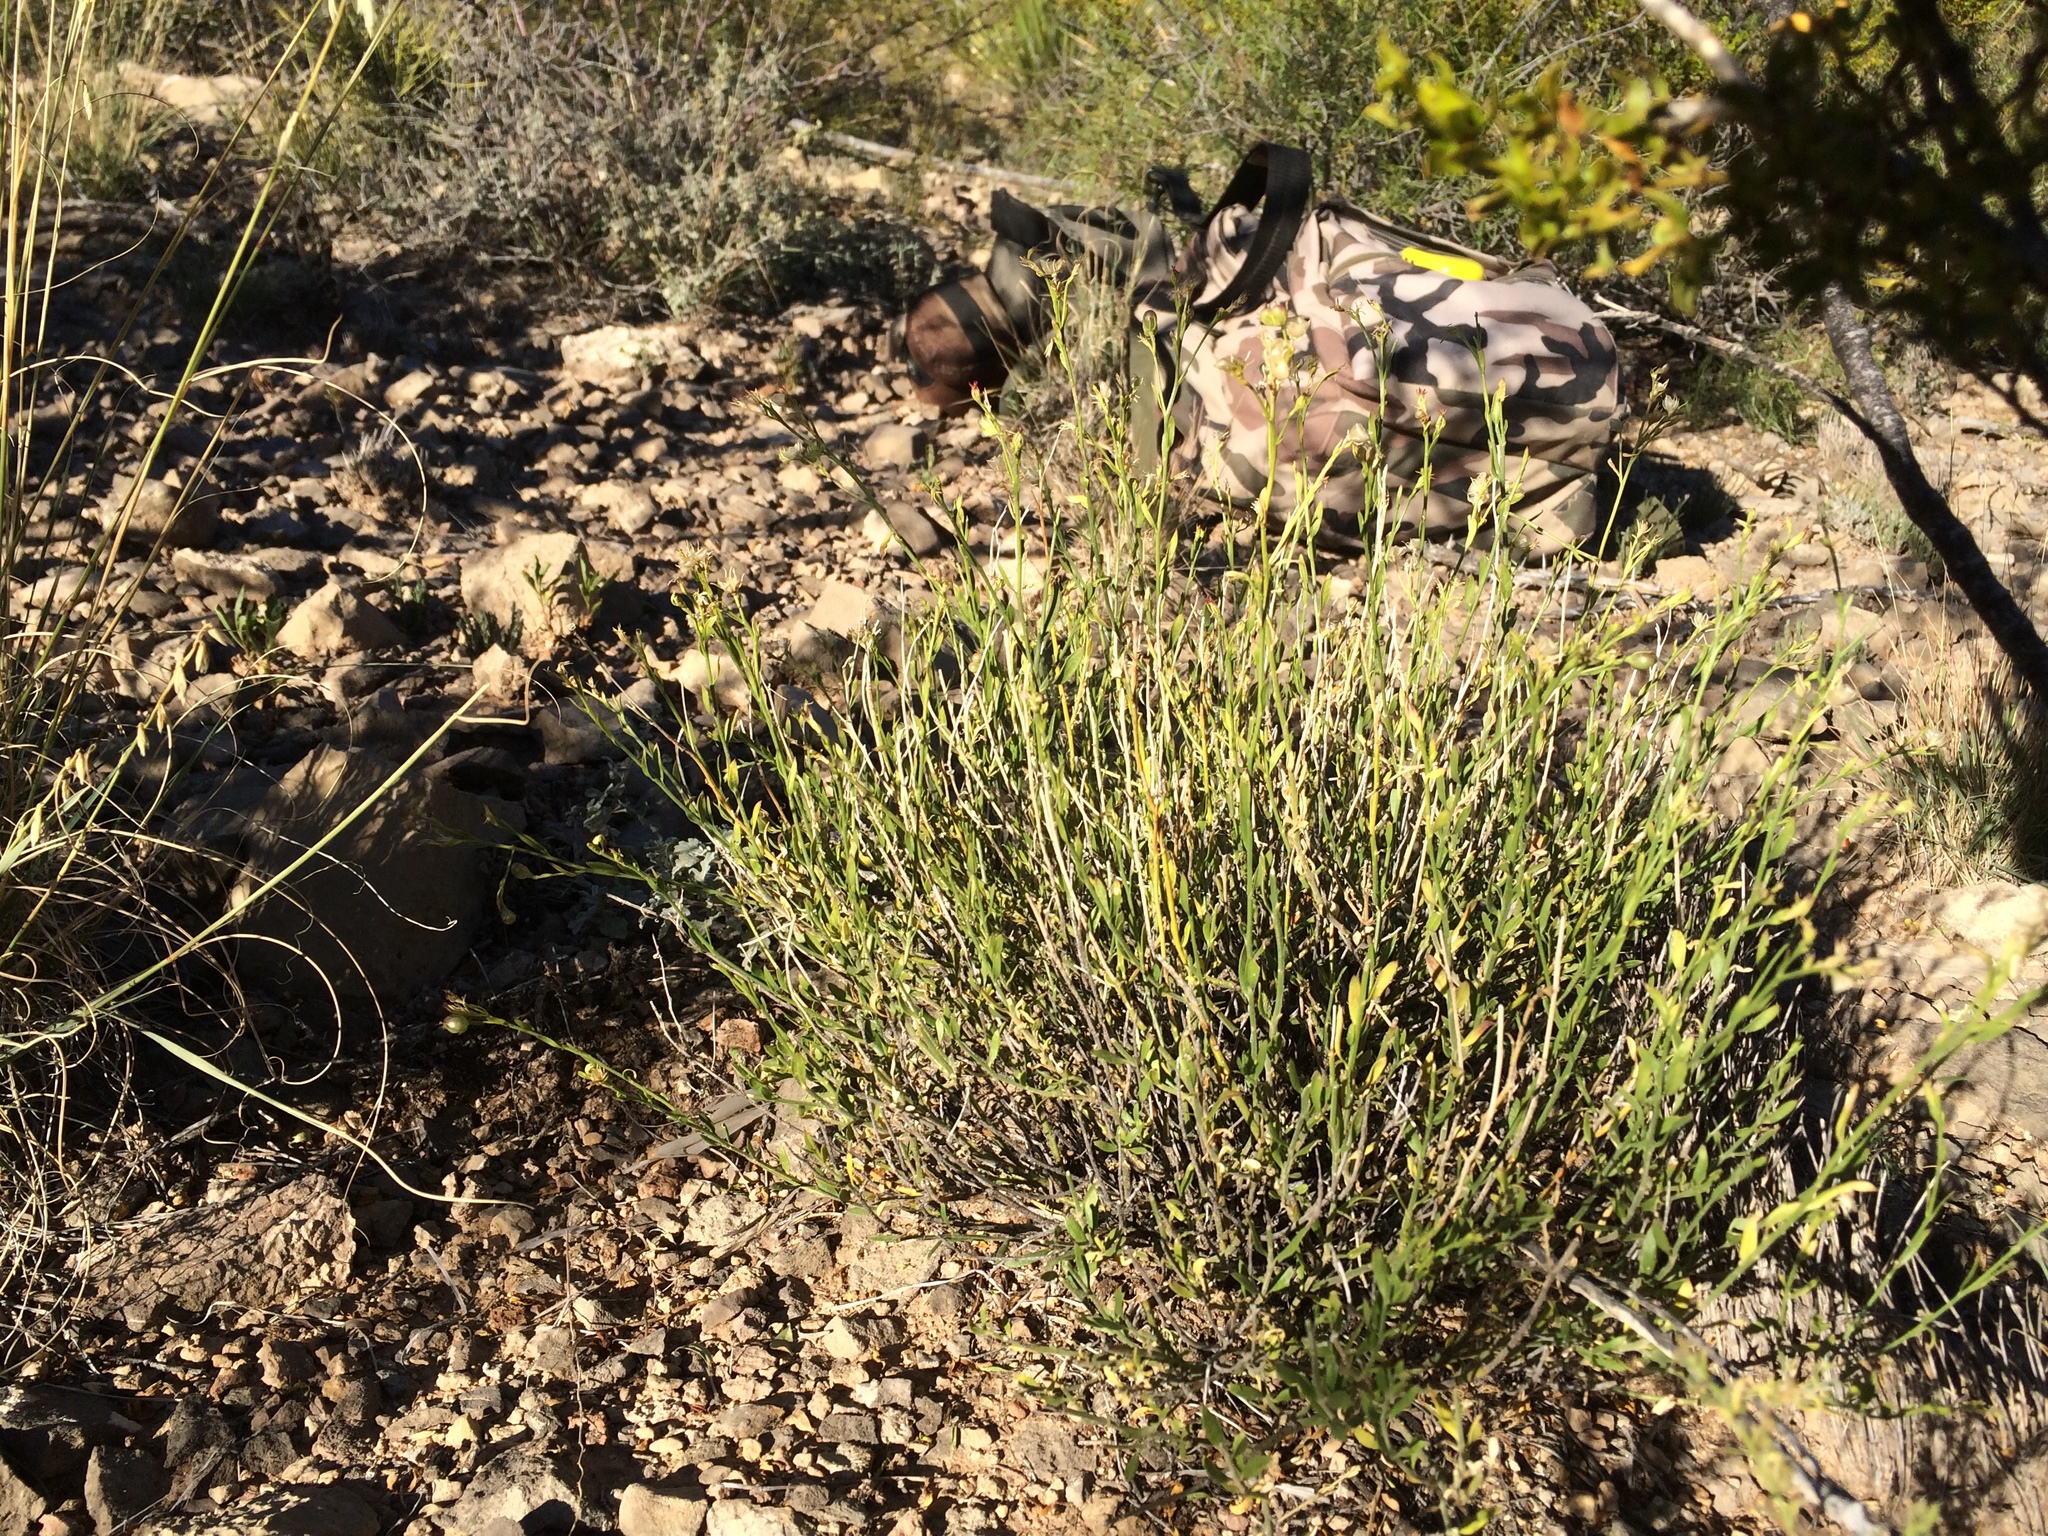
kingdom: Plantae
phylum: Tracheophyta
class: Magnoliopsida
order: Lamiales
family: Oleaceae
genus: Menodora
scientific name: Menodora scabra
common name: Rough menodora
